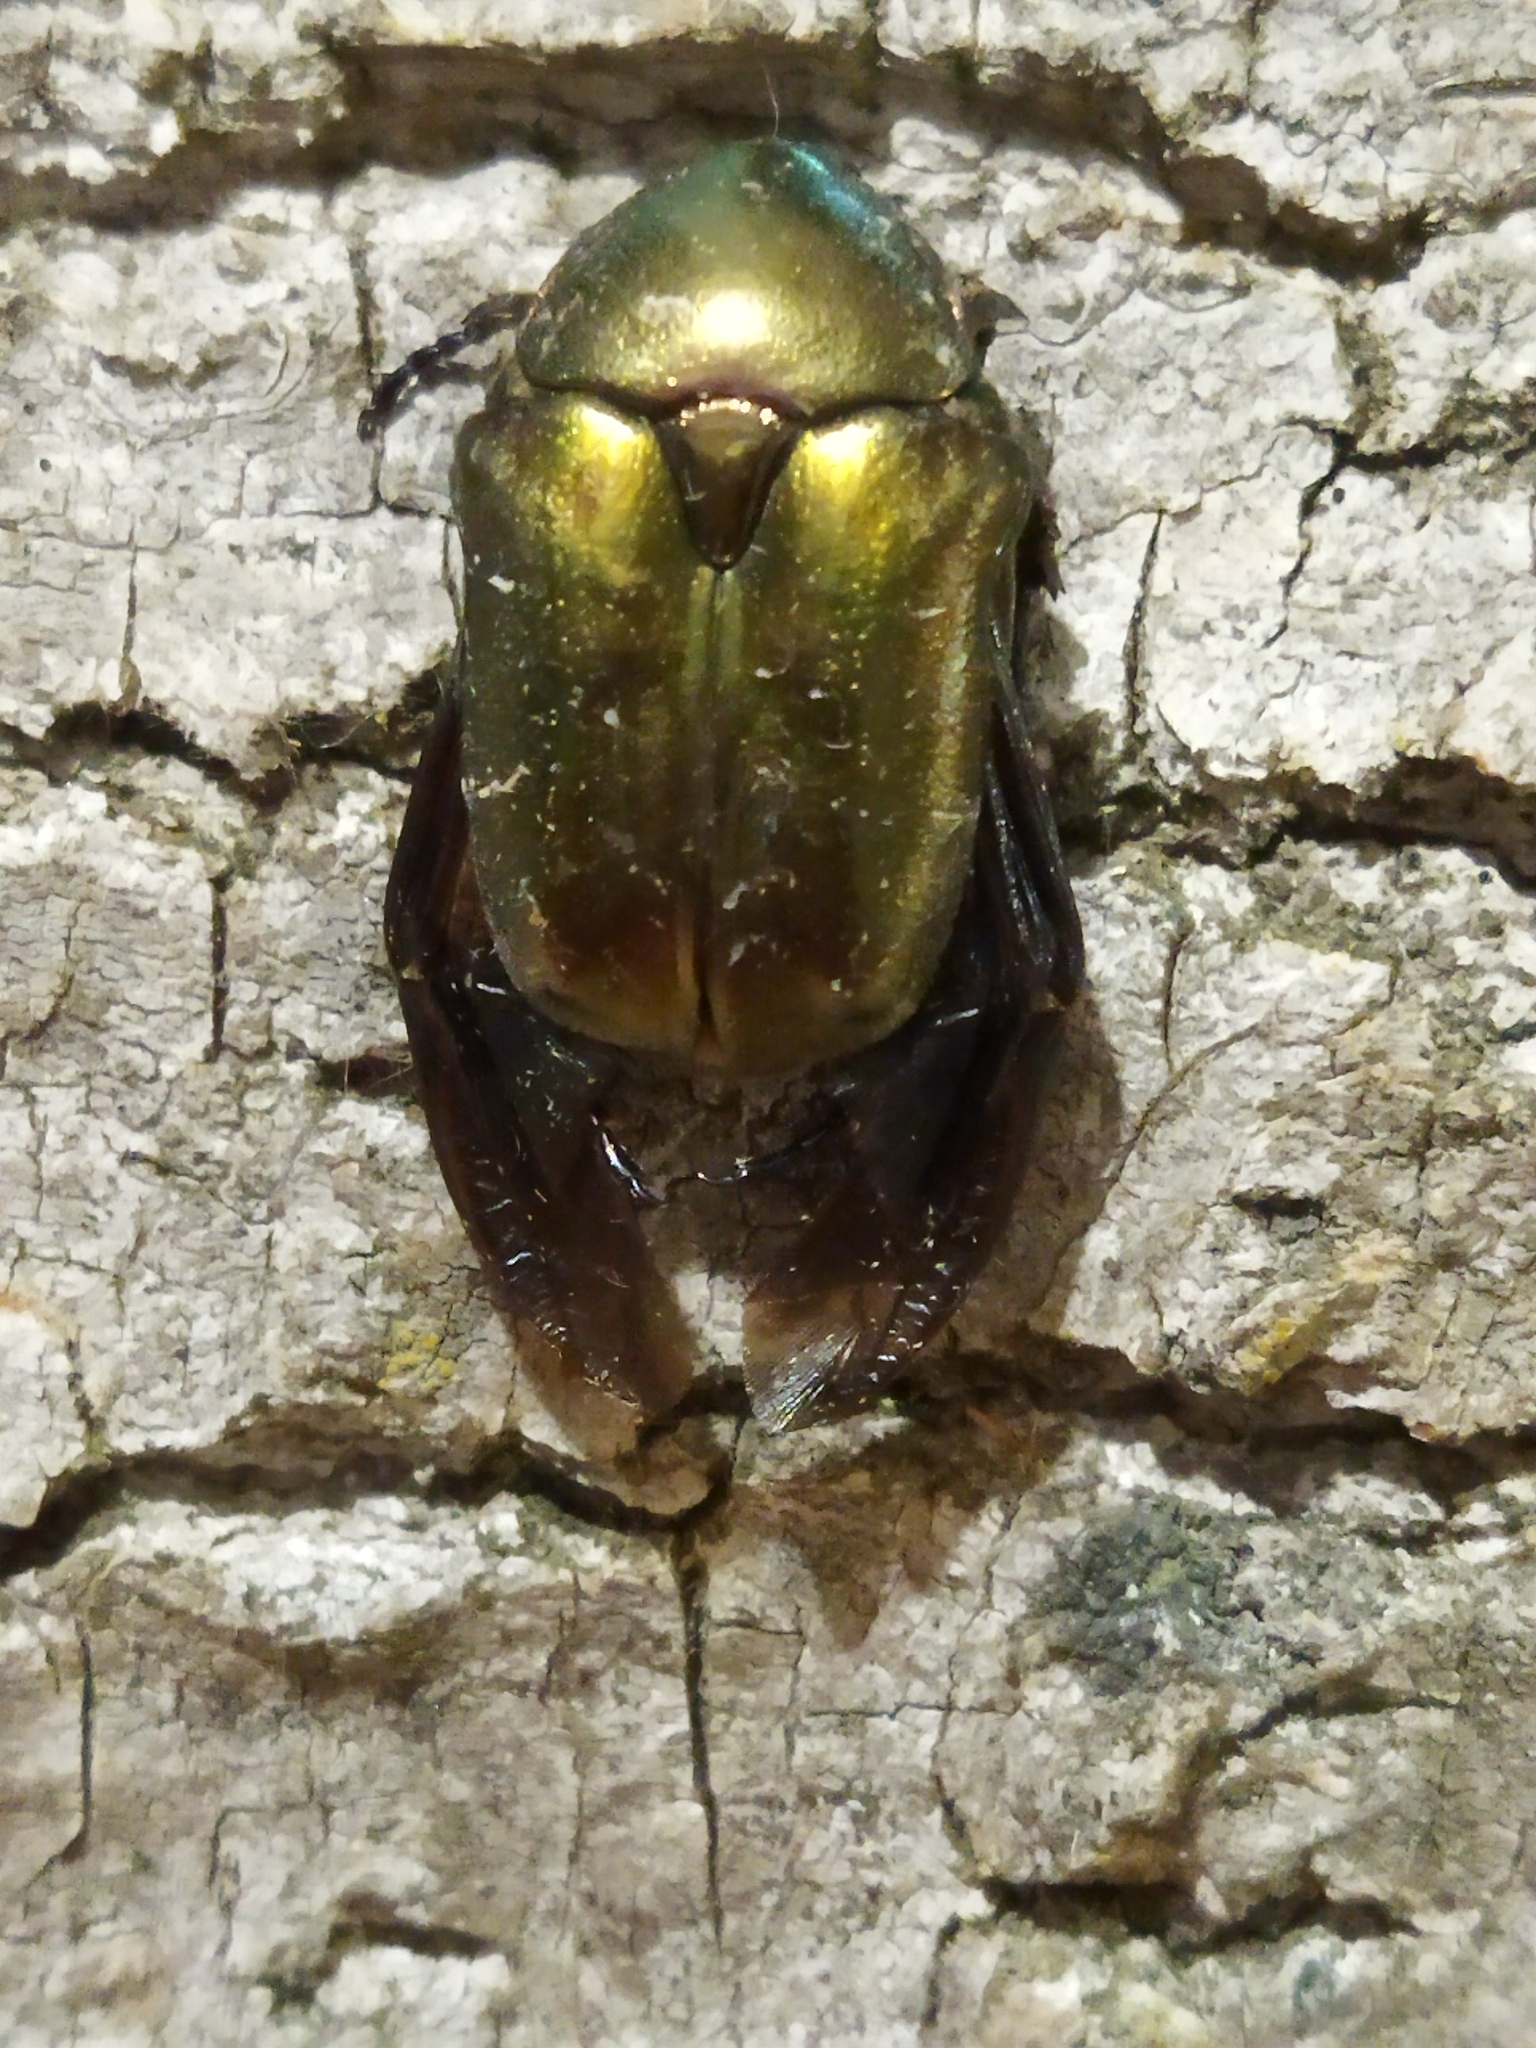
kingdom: Animalia
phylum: Arthropoda
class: Insecta
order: Coleoptera
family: Scarabaeidae
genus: Protaetia
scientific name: Protaetia cuprea
